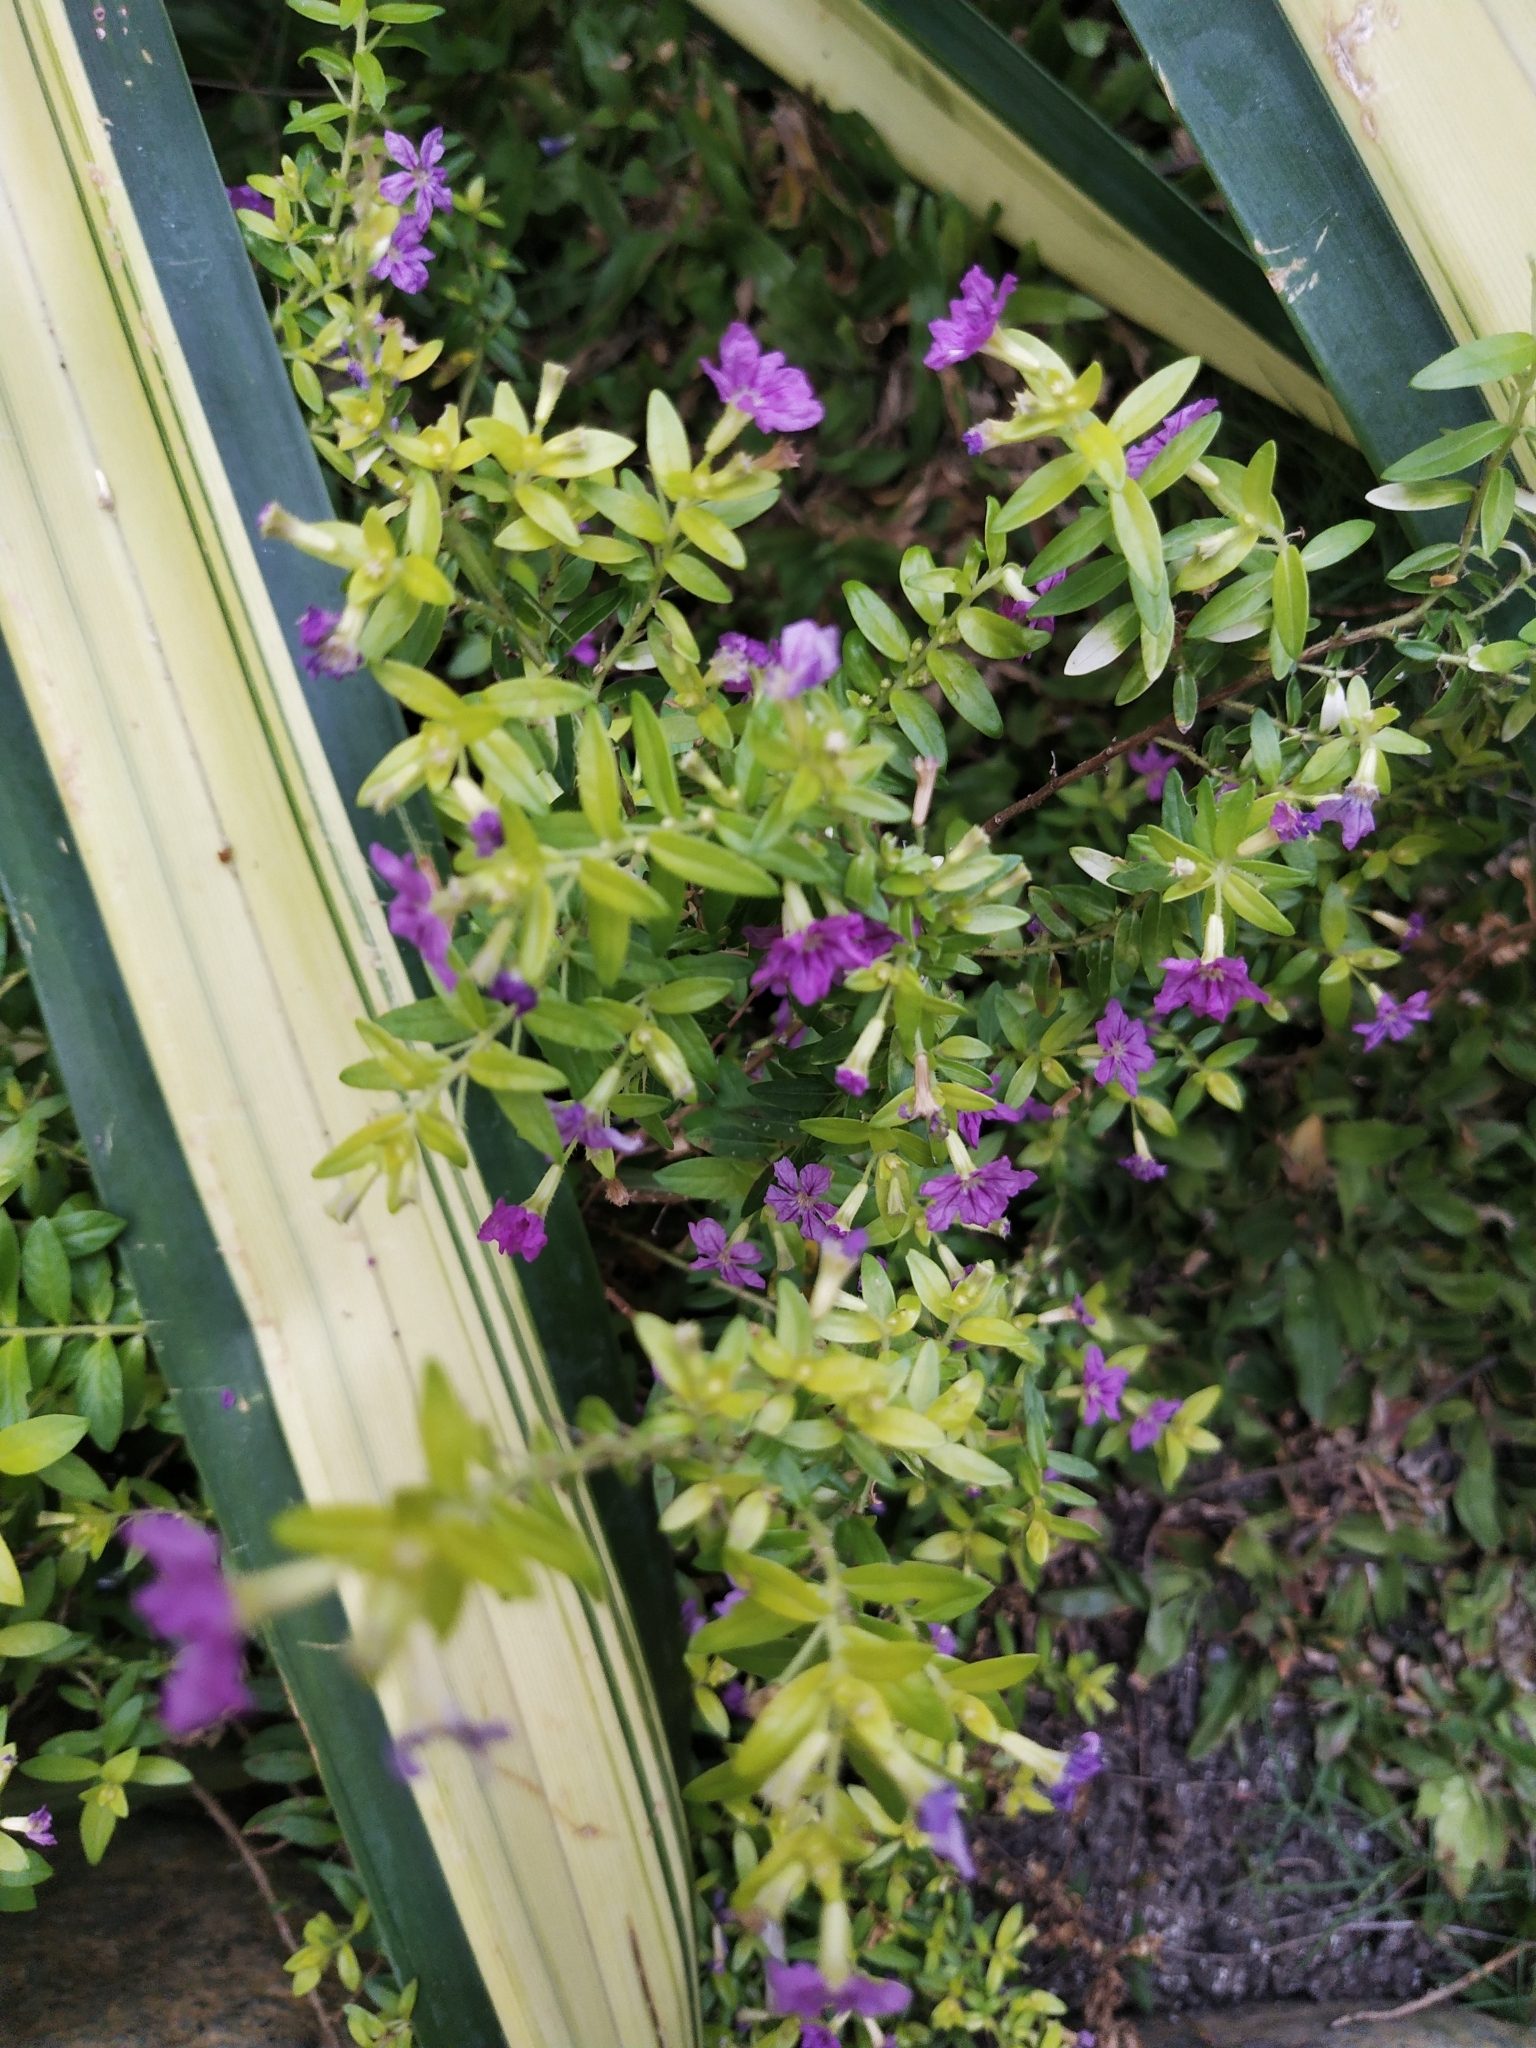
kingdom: Plantae
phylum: Tracheophyta
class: Magnoliopsida
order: Myrtales
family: Lythraceae
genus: Cuphea
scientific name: Cuphea hyssopifolia
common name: False heather
